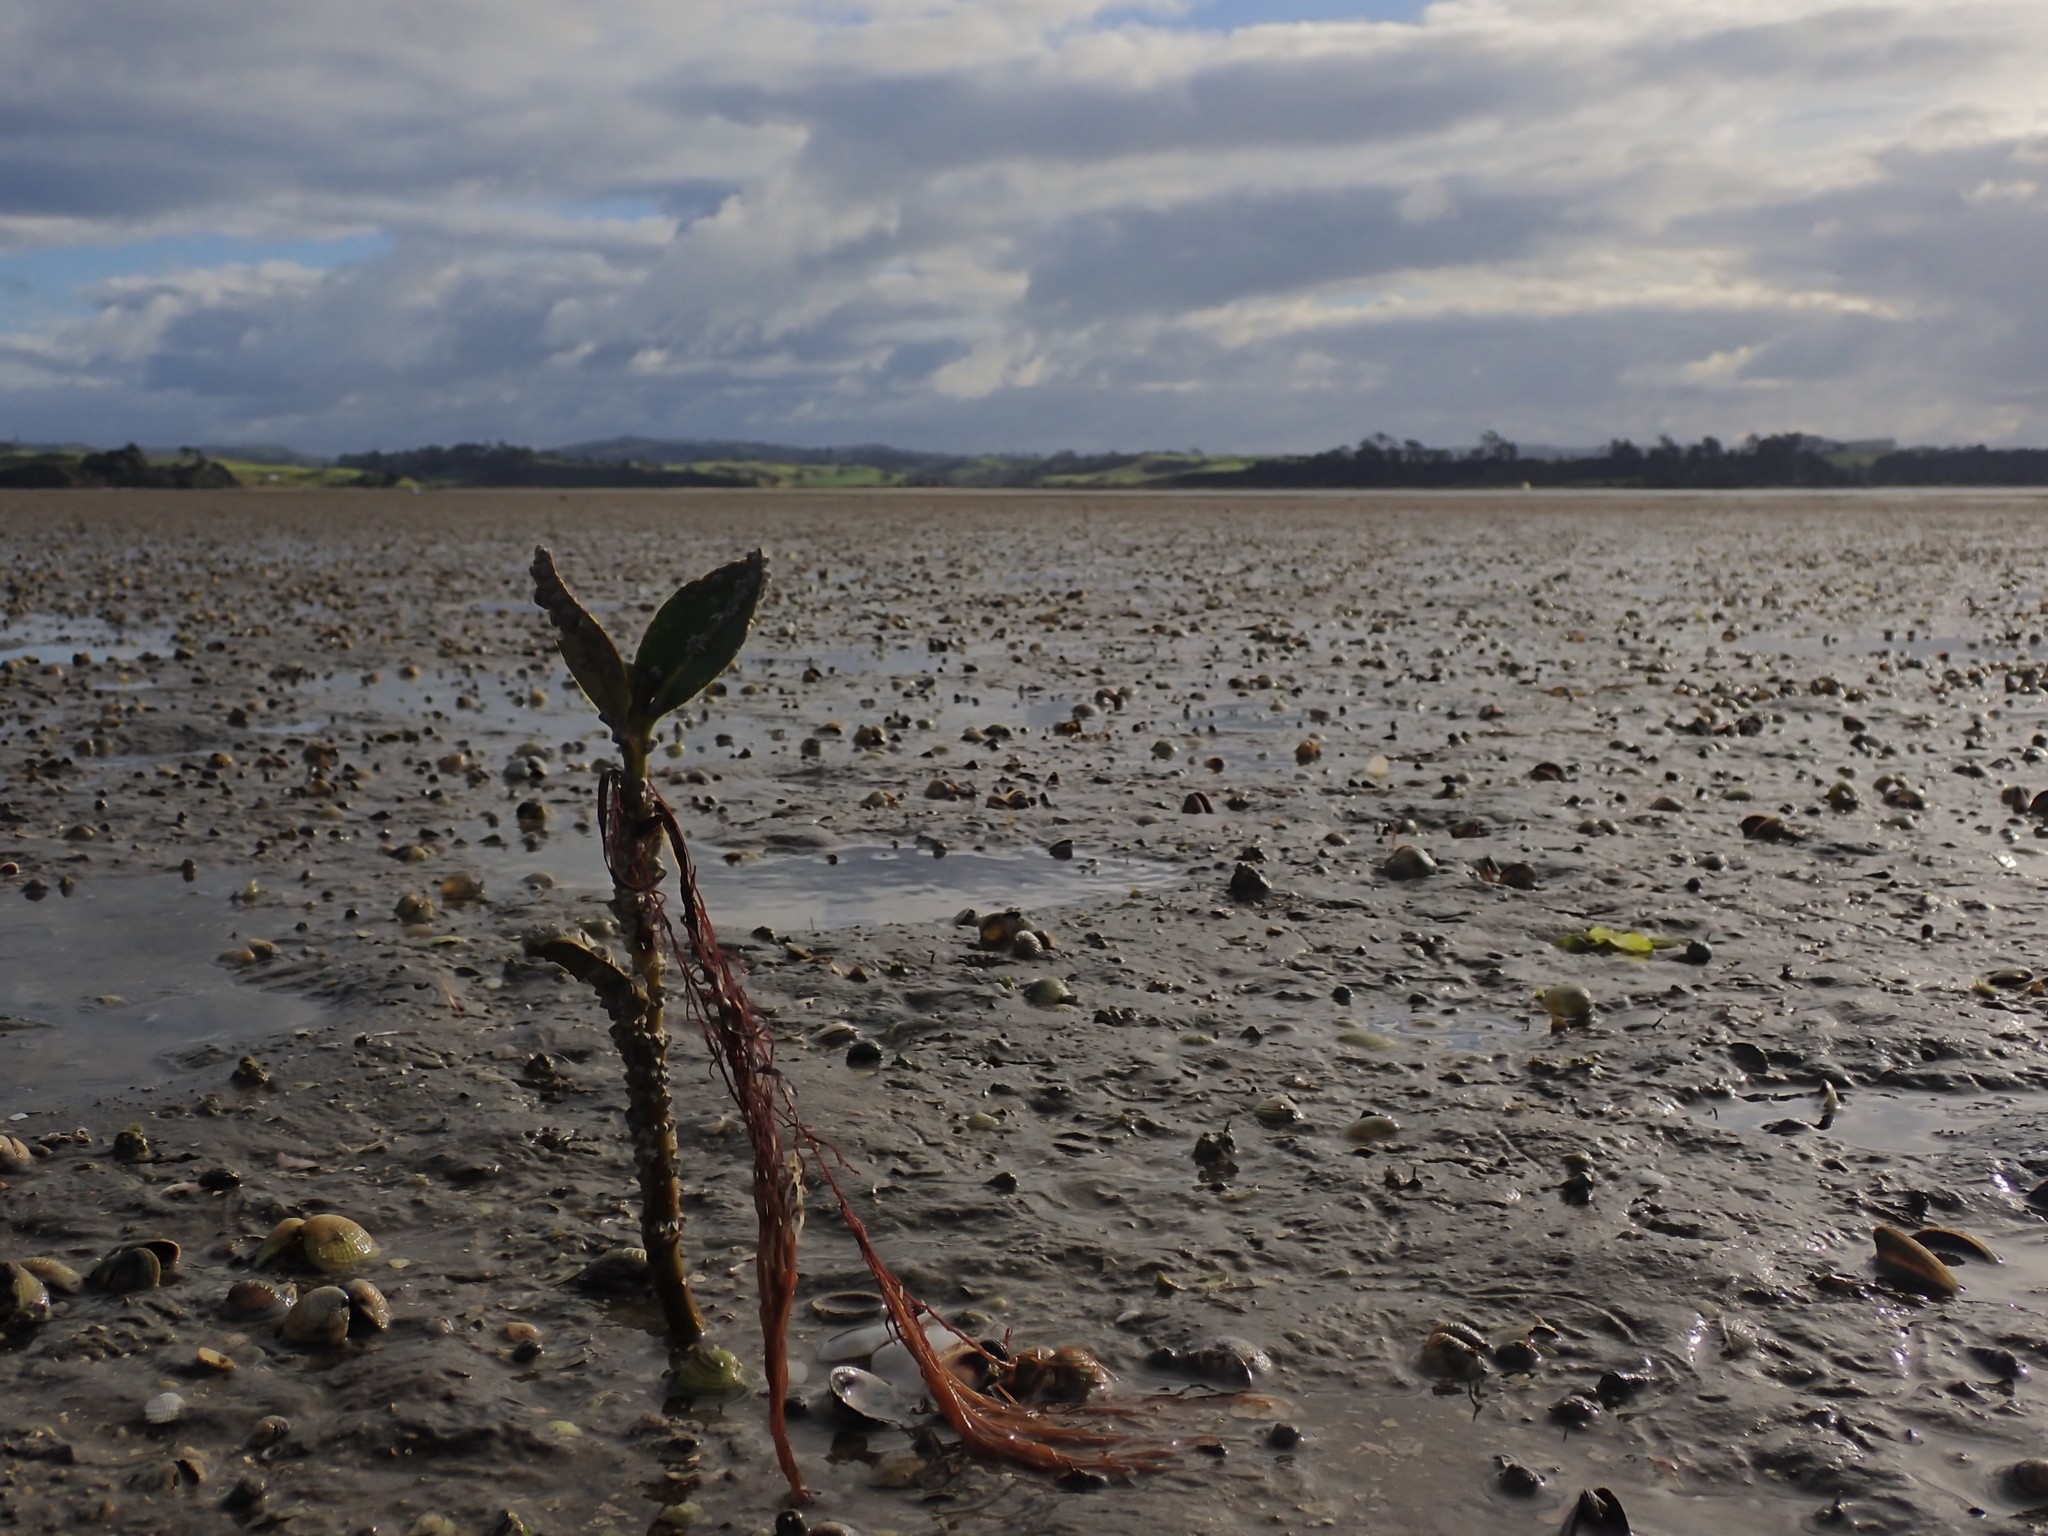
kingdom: Plantae
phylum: Tracheophyta
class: Magnoliopsida
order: Lamiales
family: Acanthaceae
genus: Avicennia
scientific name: Avicennia marina
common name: Gray mangrove
